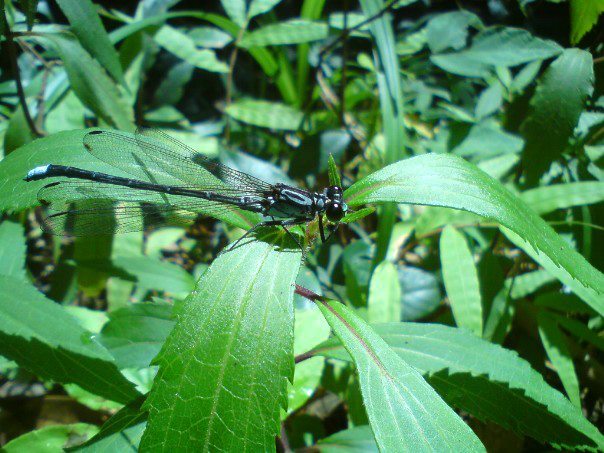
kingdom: Animalia
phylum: Arthropoda
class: Insecta
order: Odonata
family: Euphaeidae
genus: Anisopleura
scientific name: Anisopleura subplatystyla
